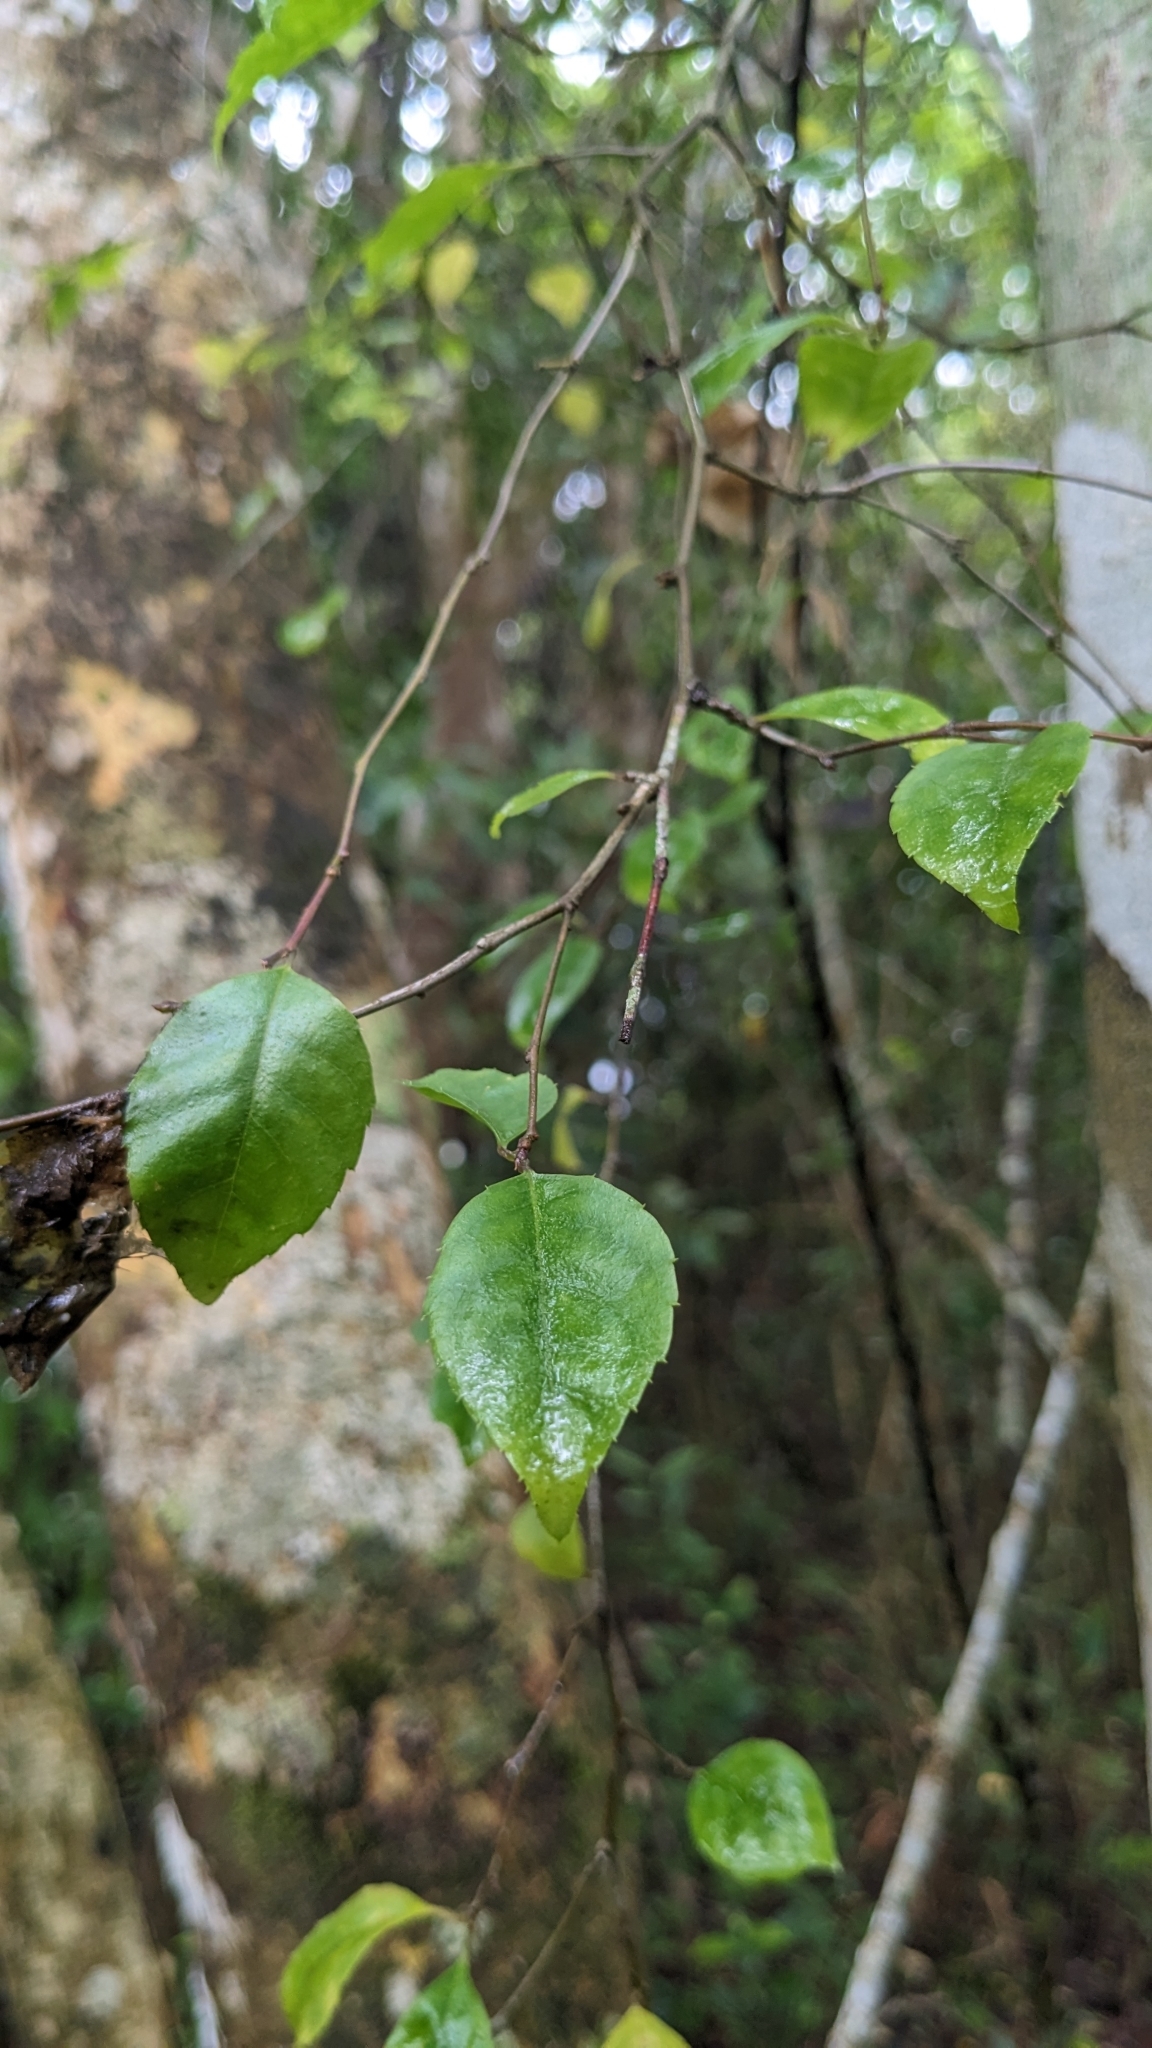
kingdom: Plantae
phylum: Tracheophyta
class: Magnoliopsida
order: Aquifoliales
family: Aquifoliaceae
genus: Ilex
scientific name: Ilex asprella
